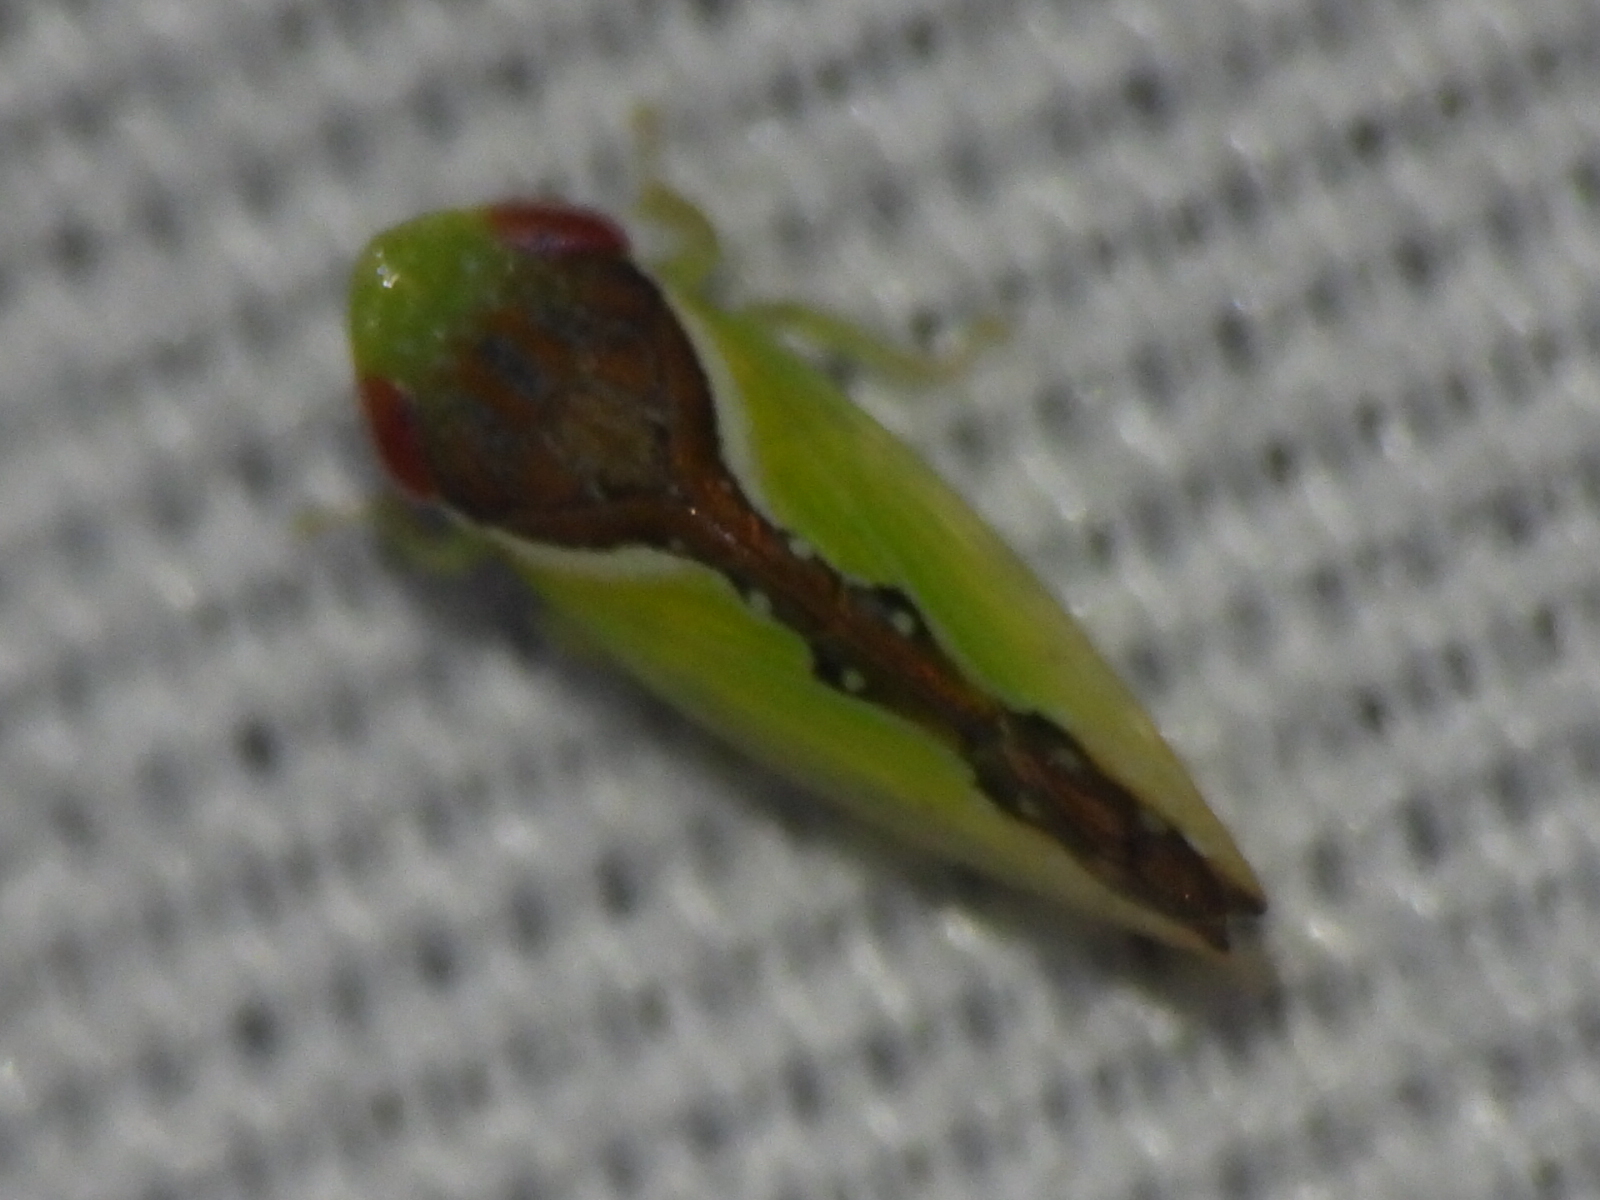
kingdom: Animalia
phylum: Arthropoda
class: Insecta
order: Hemiptera
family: Cicadellidae
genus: Omansobara ing
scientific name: Omansobara ing Omansobara palliolata
